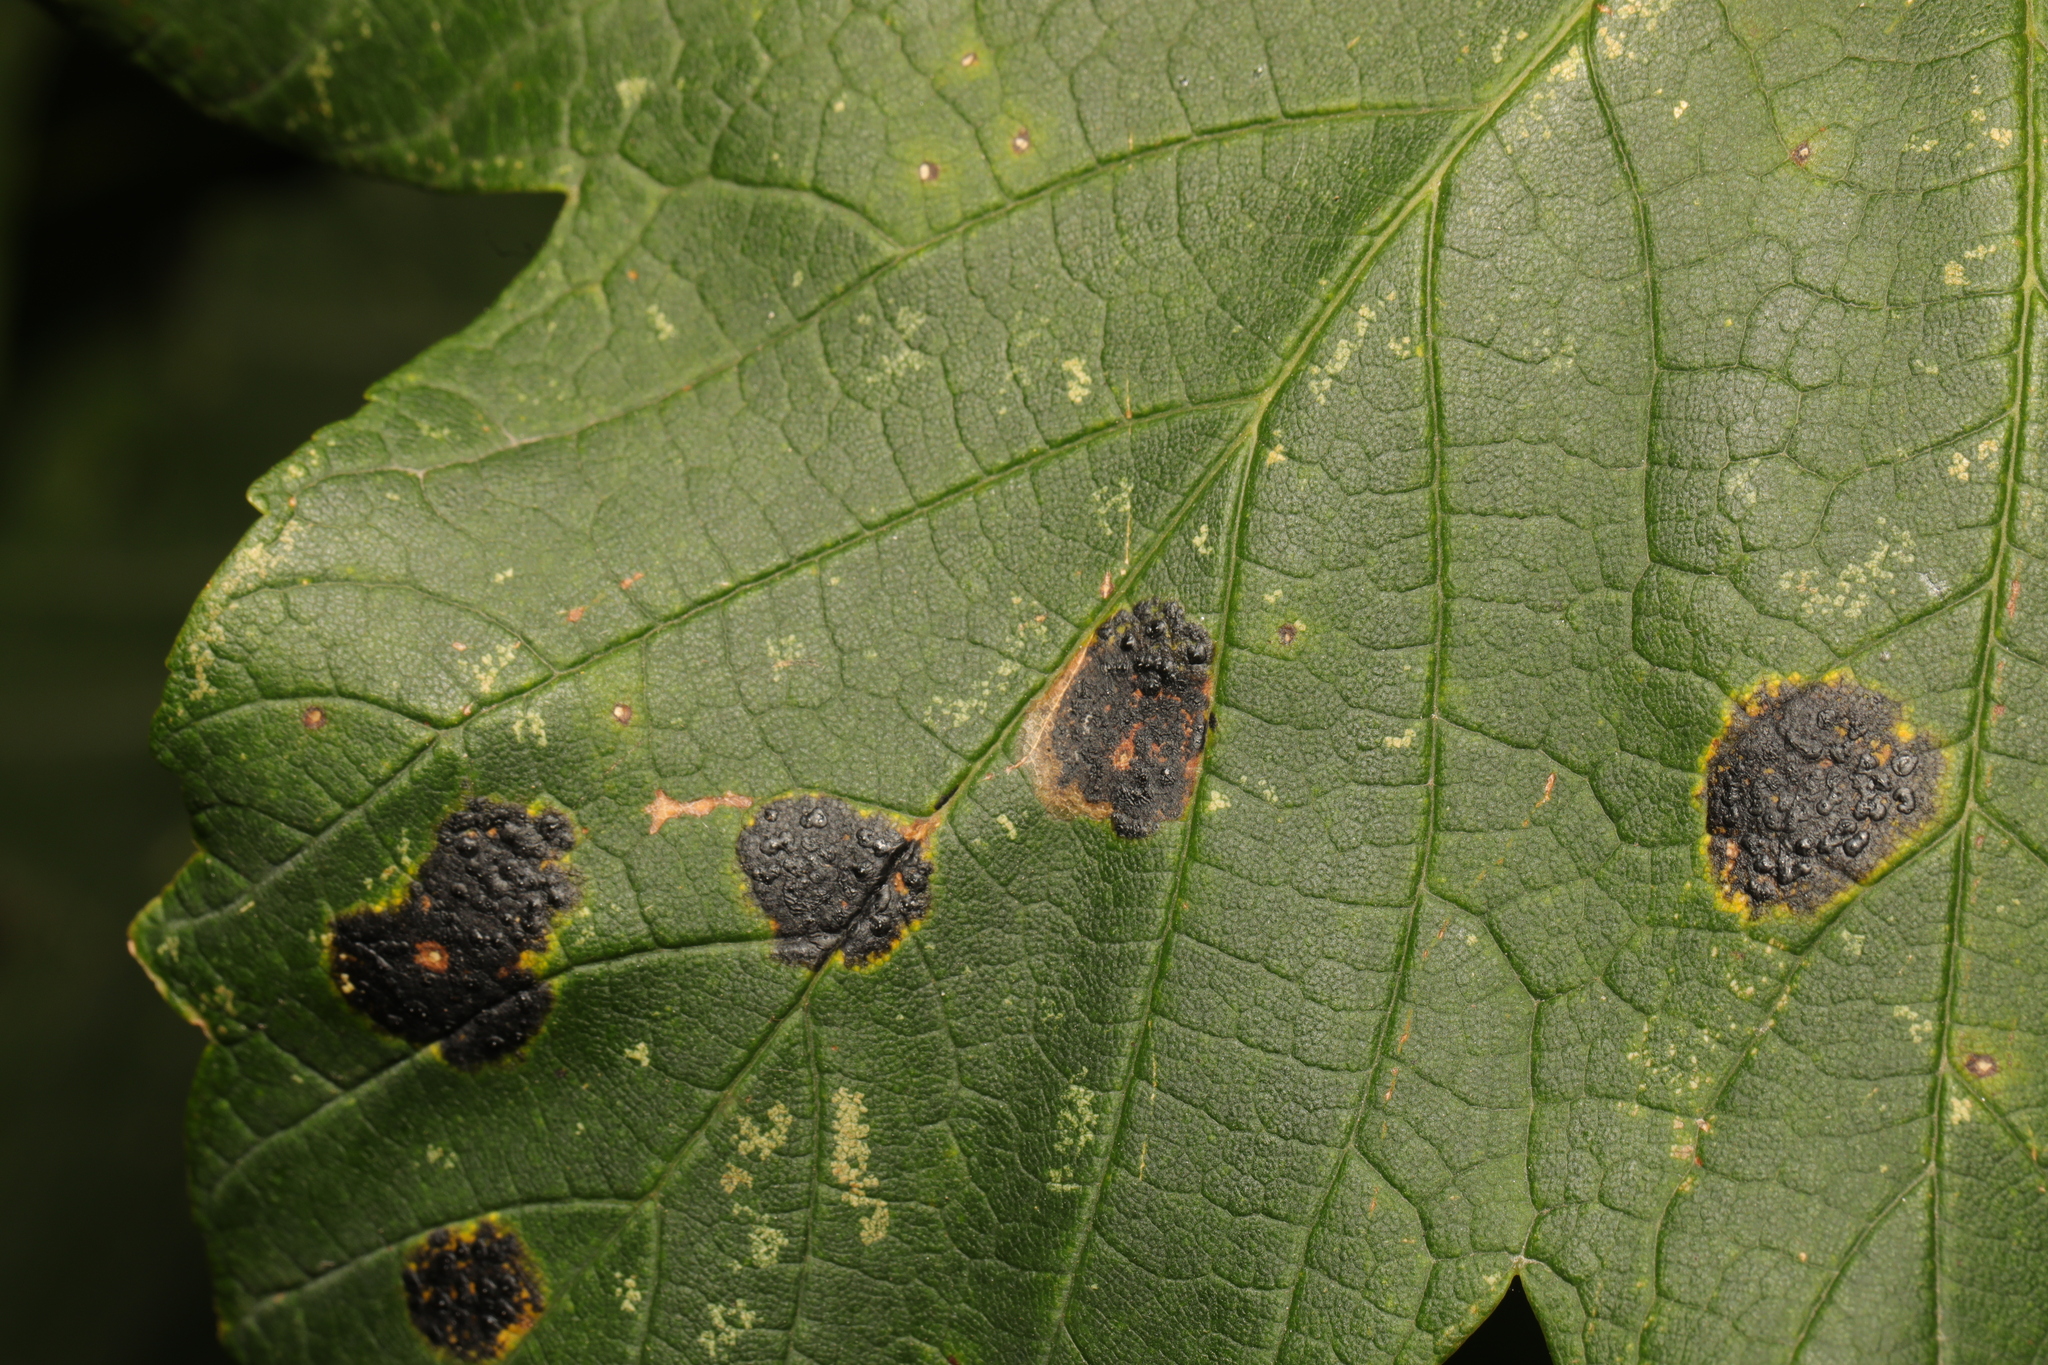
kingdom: Fungi
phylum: Ascomycota
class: Leotiomycetes
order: Rhytismatales
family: Rhytismataceae
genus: Rhytisma
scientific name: Rhytisma acerinum
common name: European tar spot
